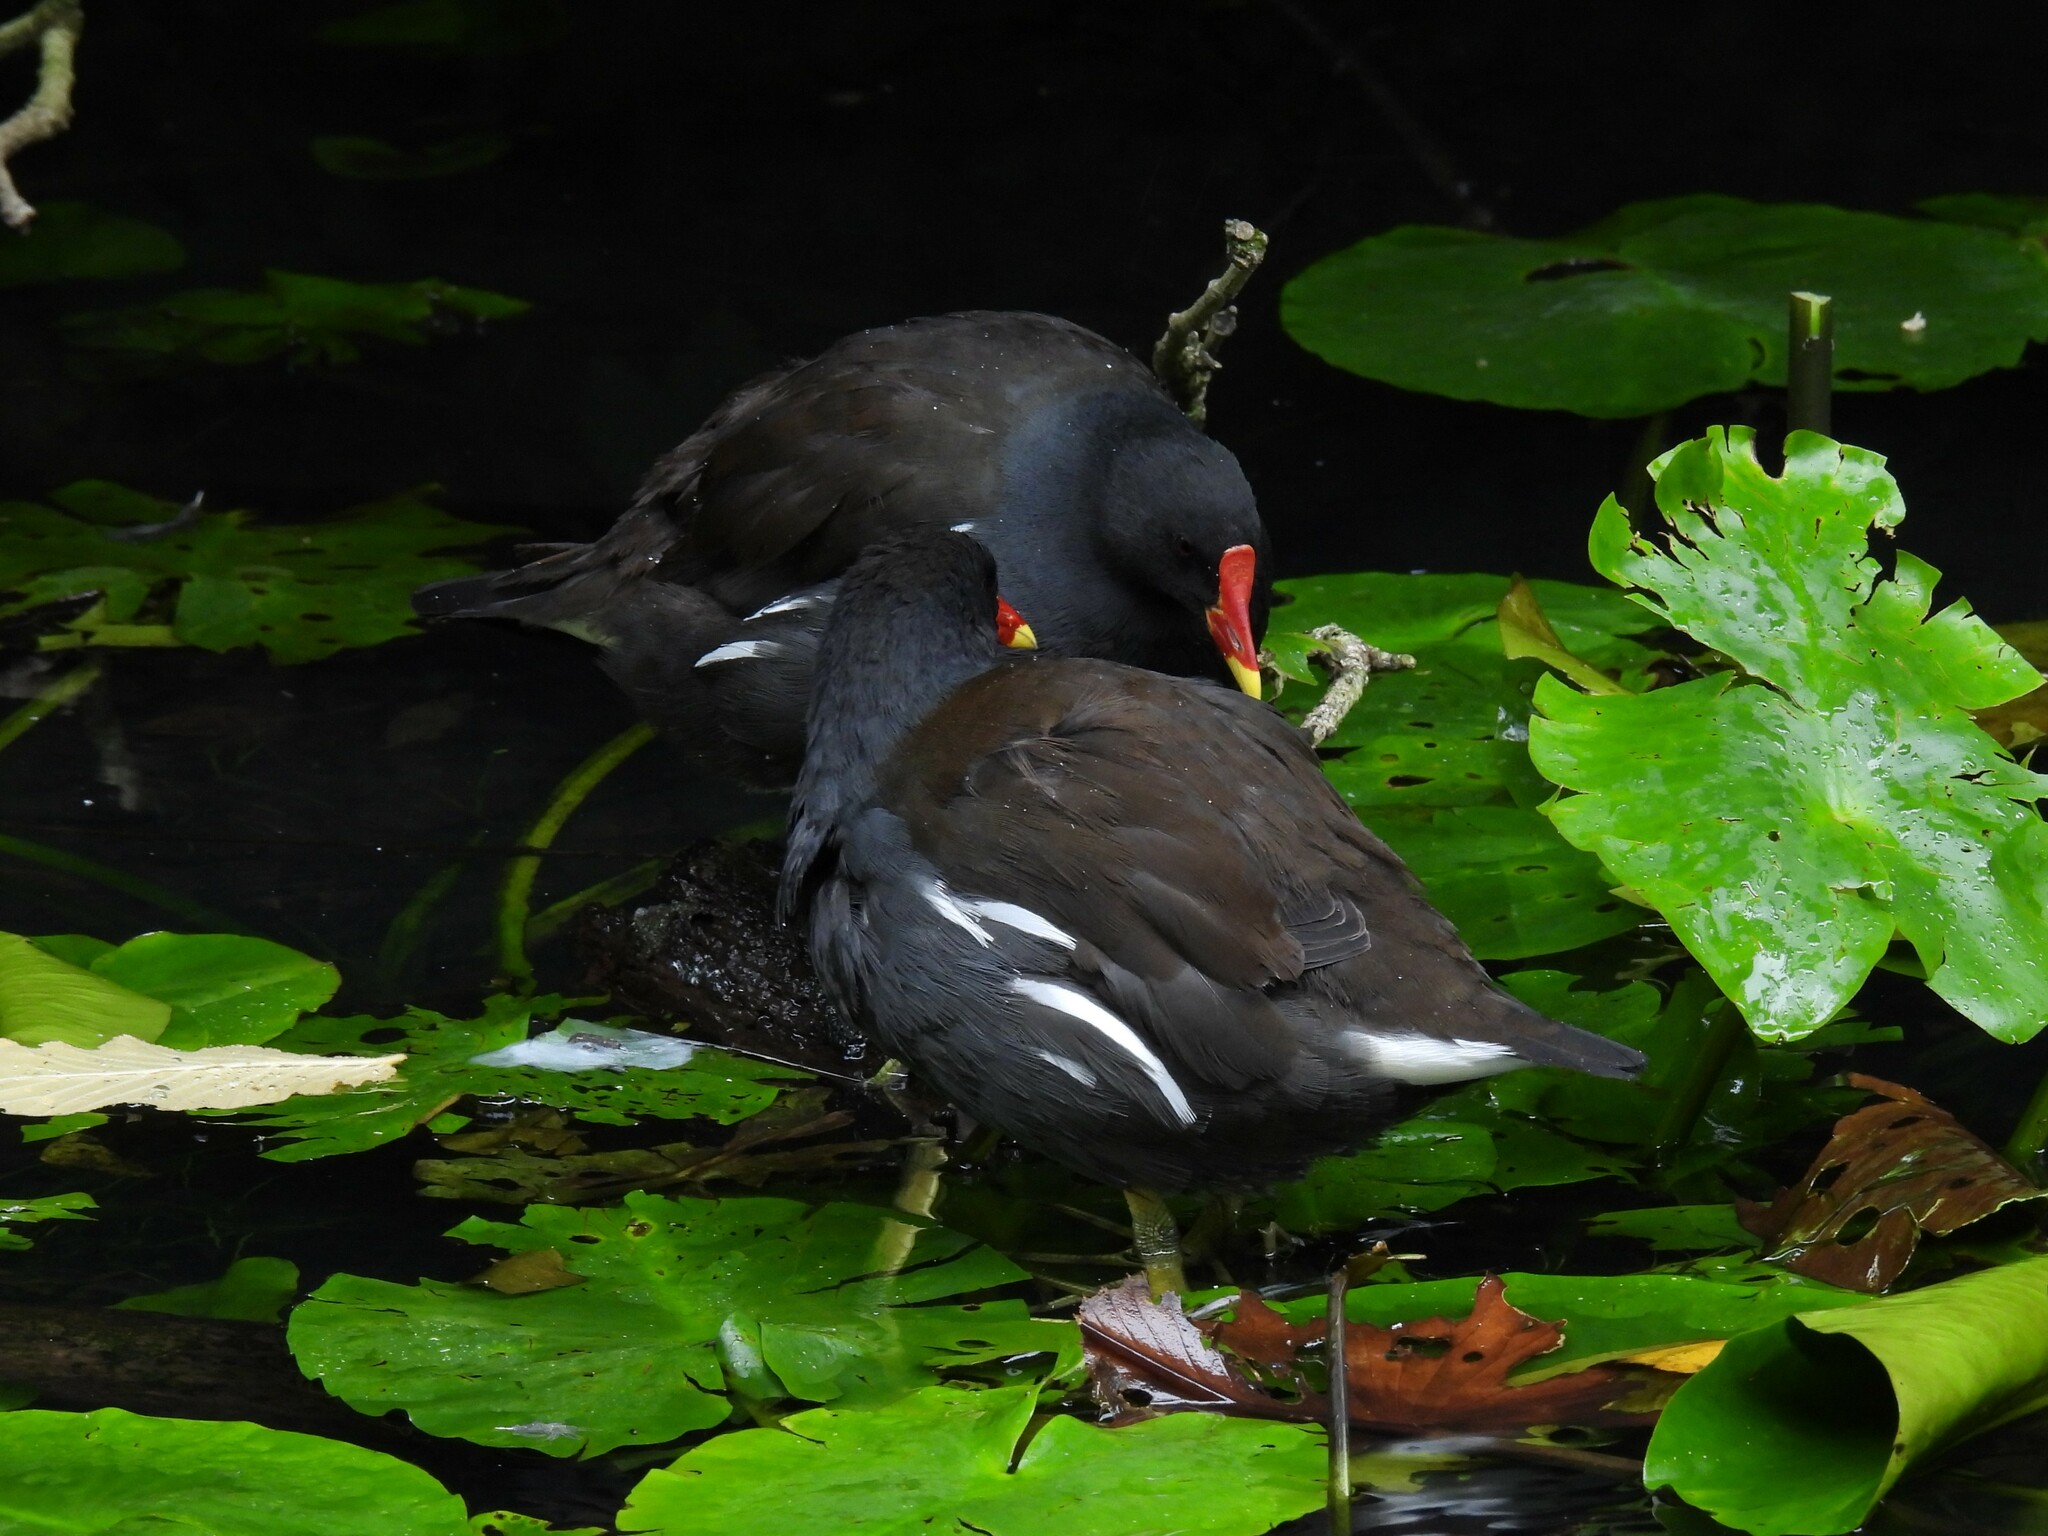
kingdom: Animalia
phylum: Chordata
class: Aves
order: Gruiformes
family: Rallidae
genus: Gallinula
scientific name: Gallinula chloropus
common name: Common moorhen
